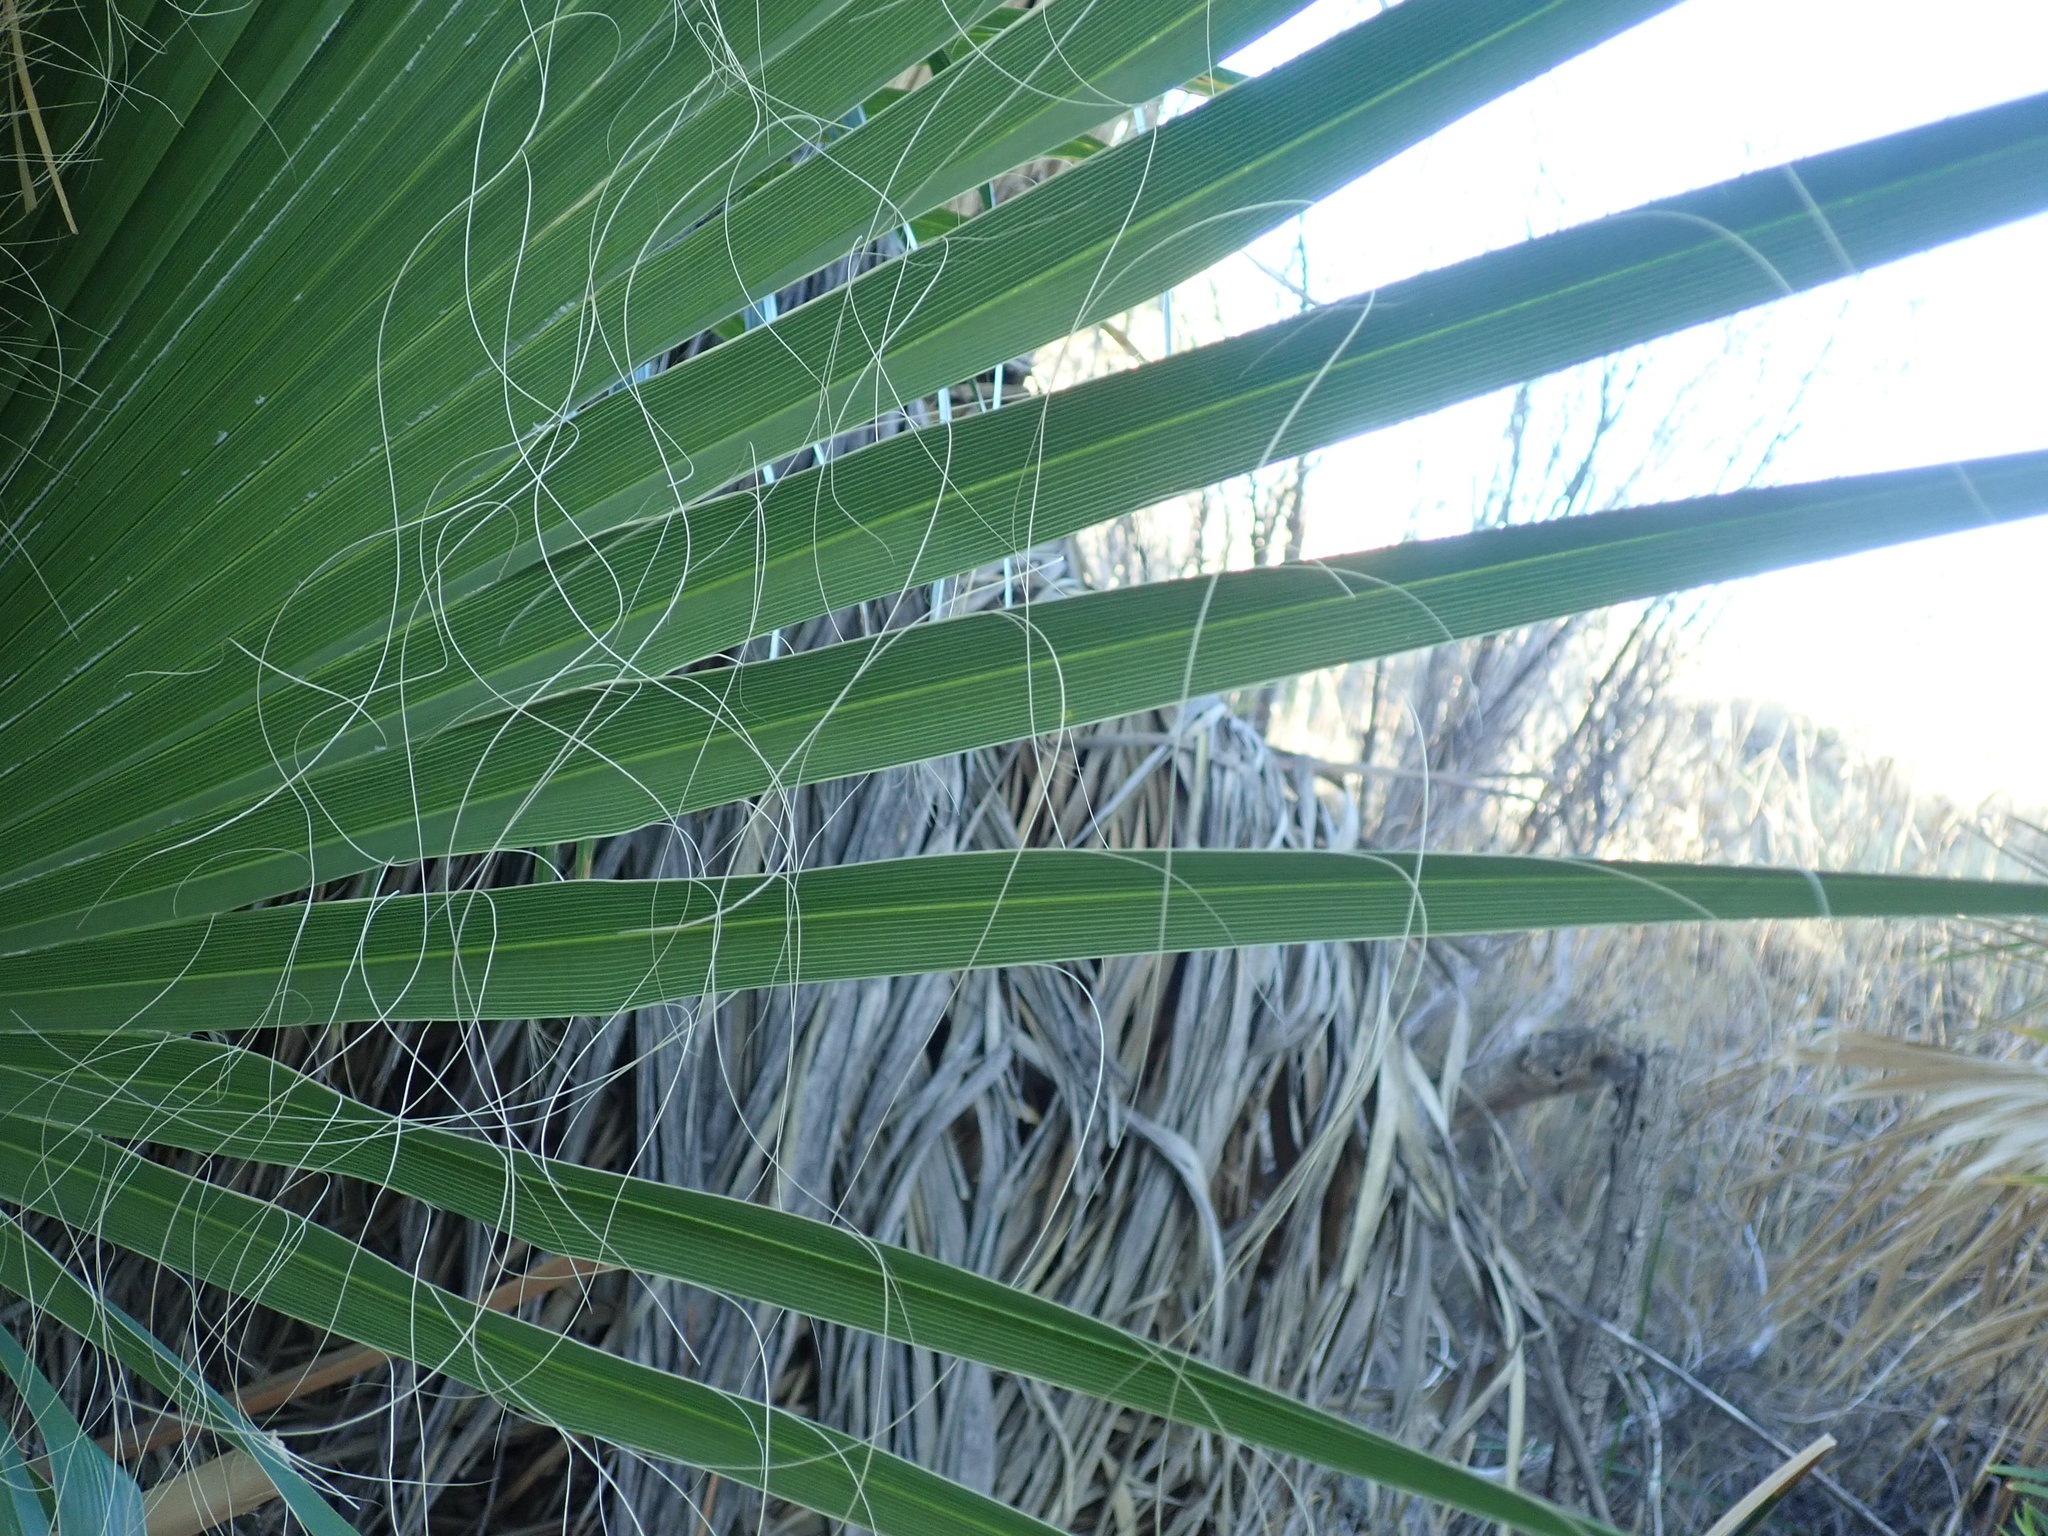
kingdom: Plantae
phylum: Tracheophyta
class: Liliopsida
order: Arecales
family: Arecaceae
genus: Washingtonia
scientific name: Washingtonia filifera
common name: California fan palm
